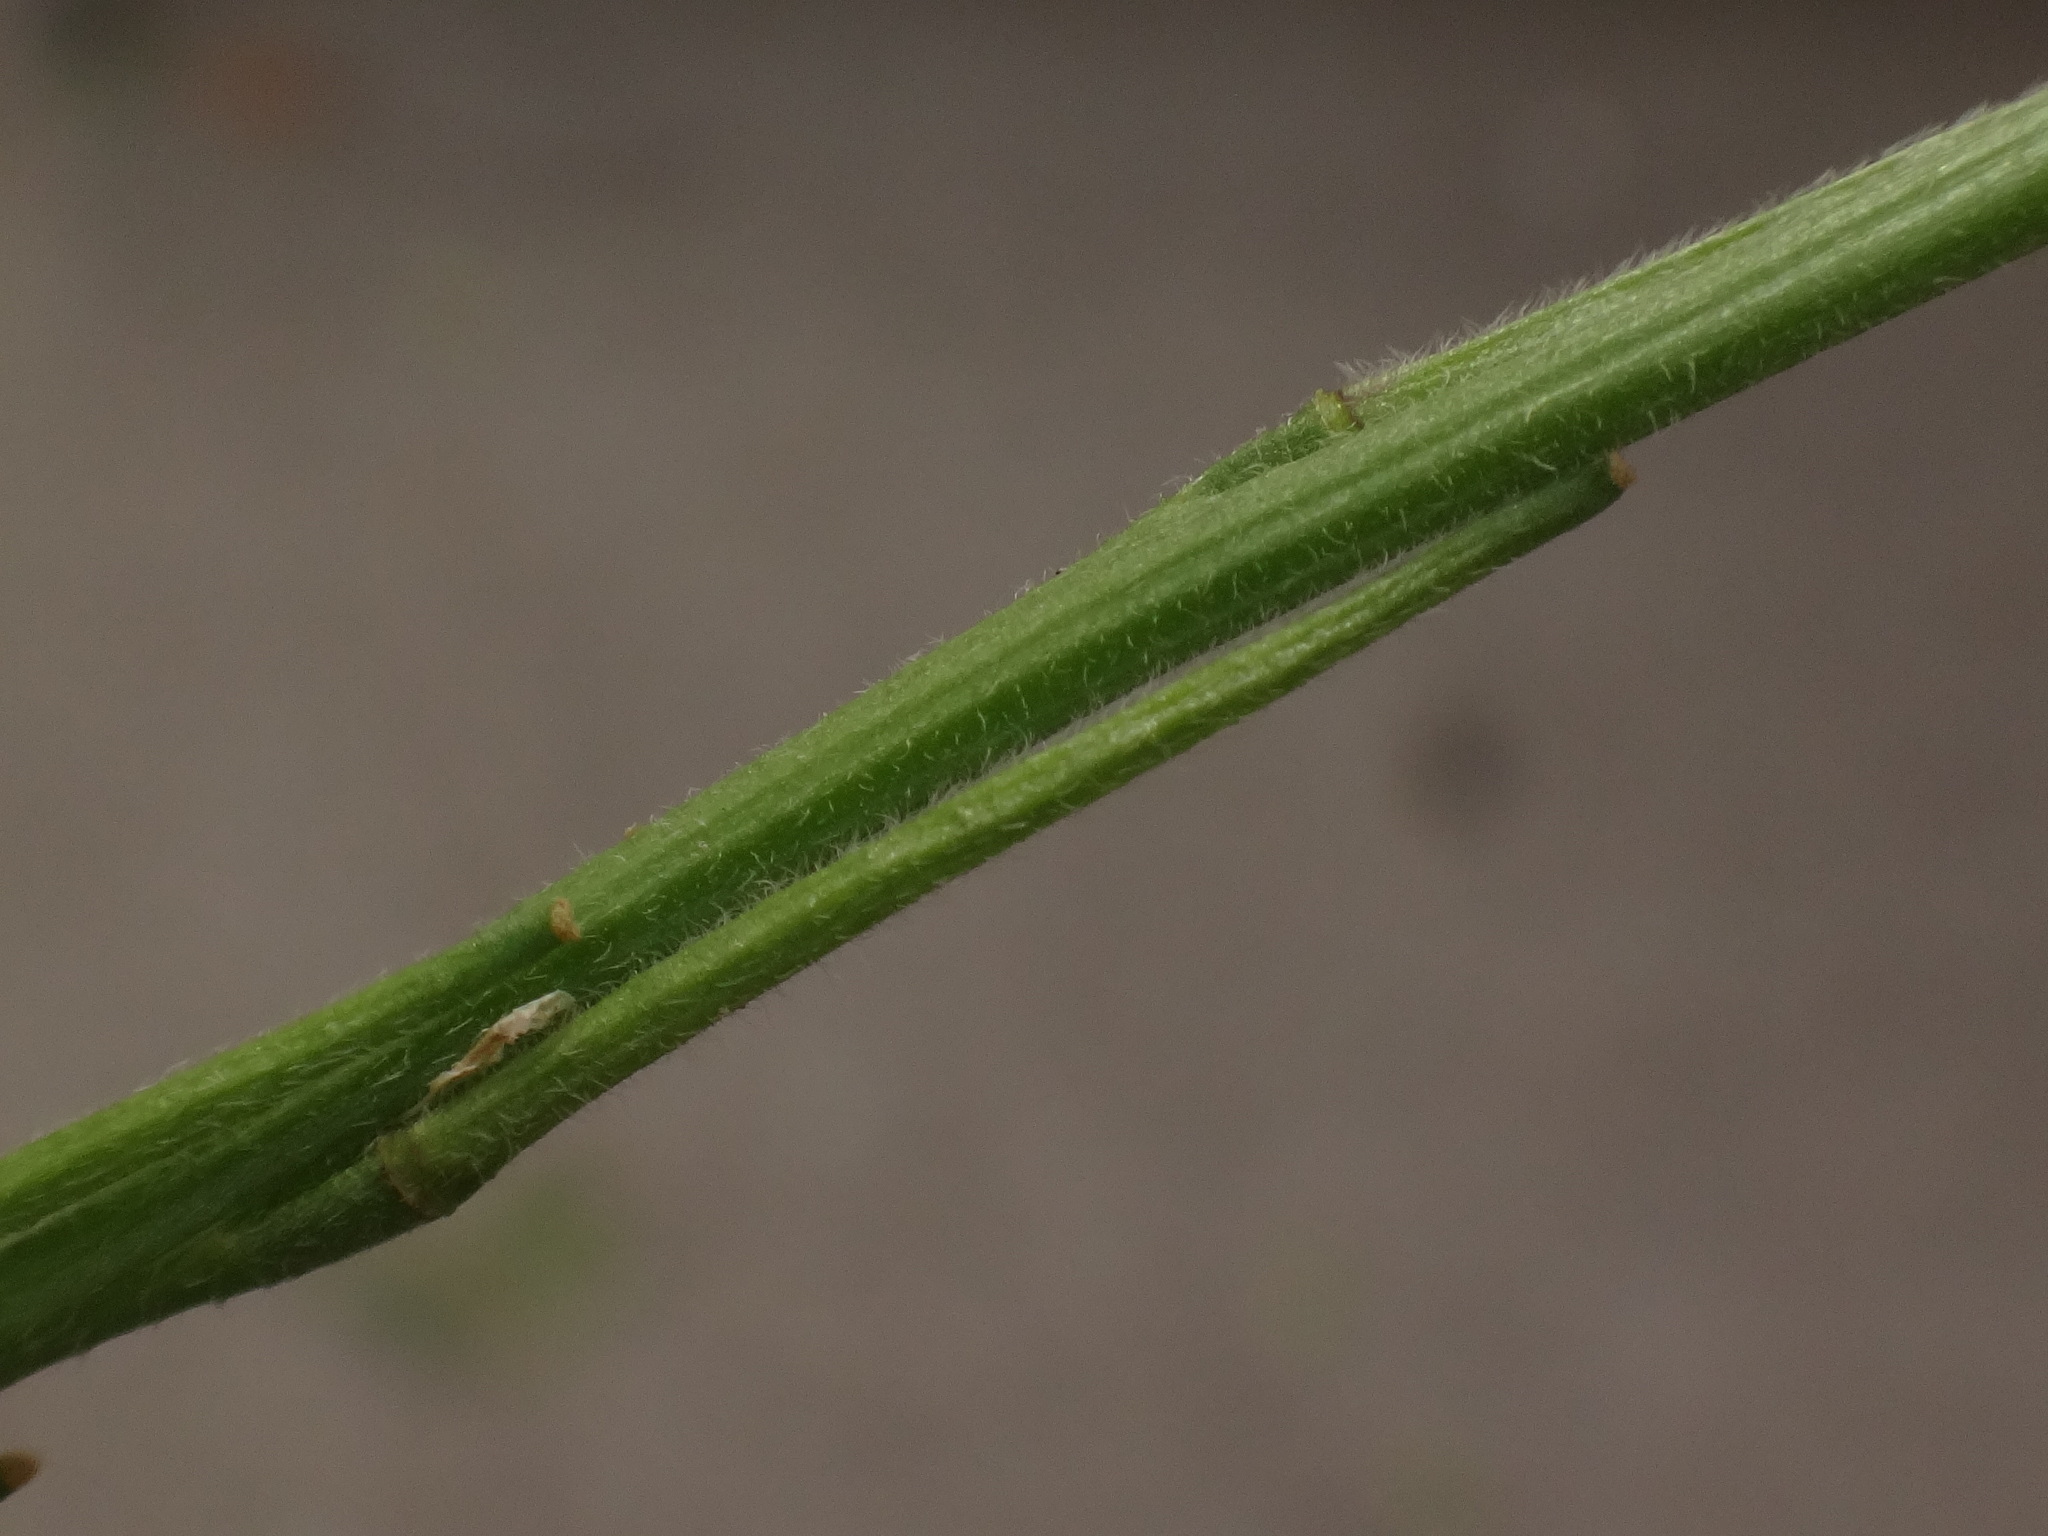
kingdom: Plantae
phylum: Tracheophyta
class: Magnoliopsida
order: Brassicales
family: Brassicaceae
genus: Sisymbrium
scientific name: Sisymbrium officinale
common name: Hedge mustard
